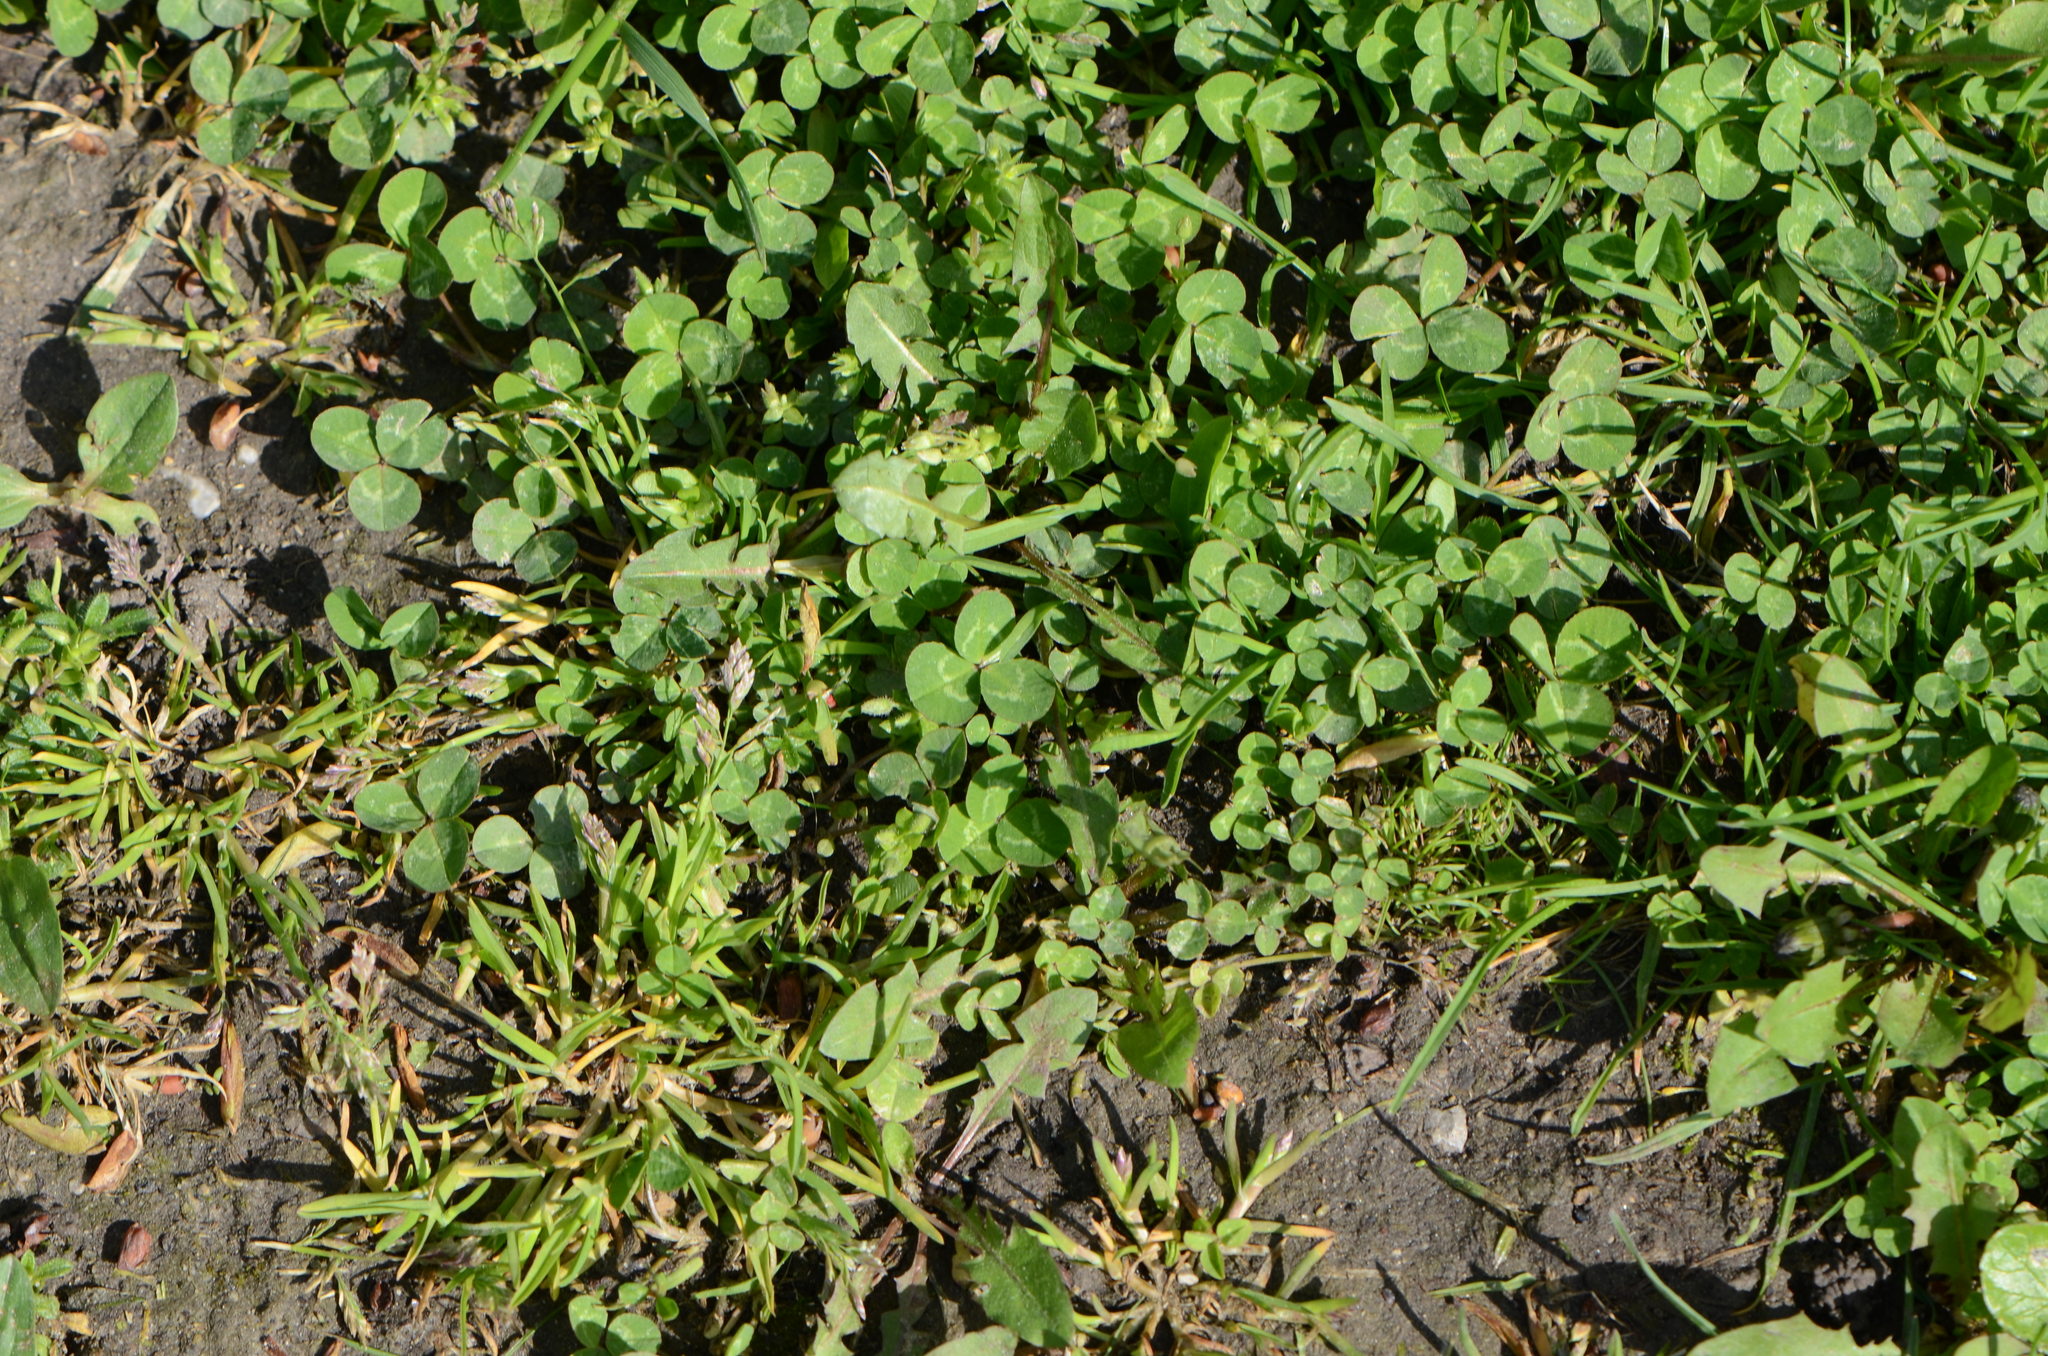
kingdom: Plantae
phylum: Tracheophyta
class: Magnoliopsida
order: Fabales
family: Fabaceae
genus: Trifolium
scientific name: Trifolium repens
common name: White clover
